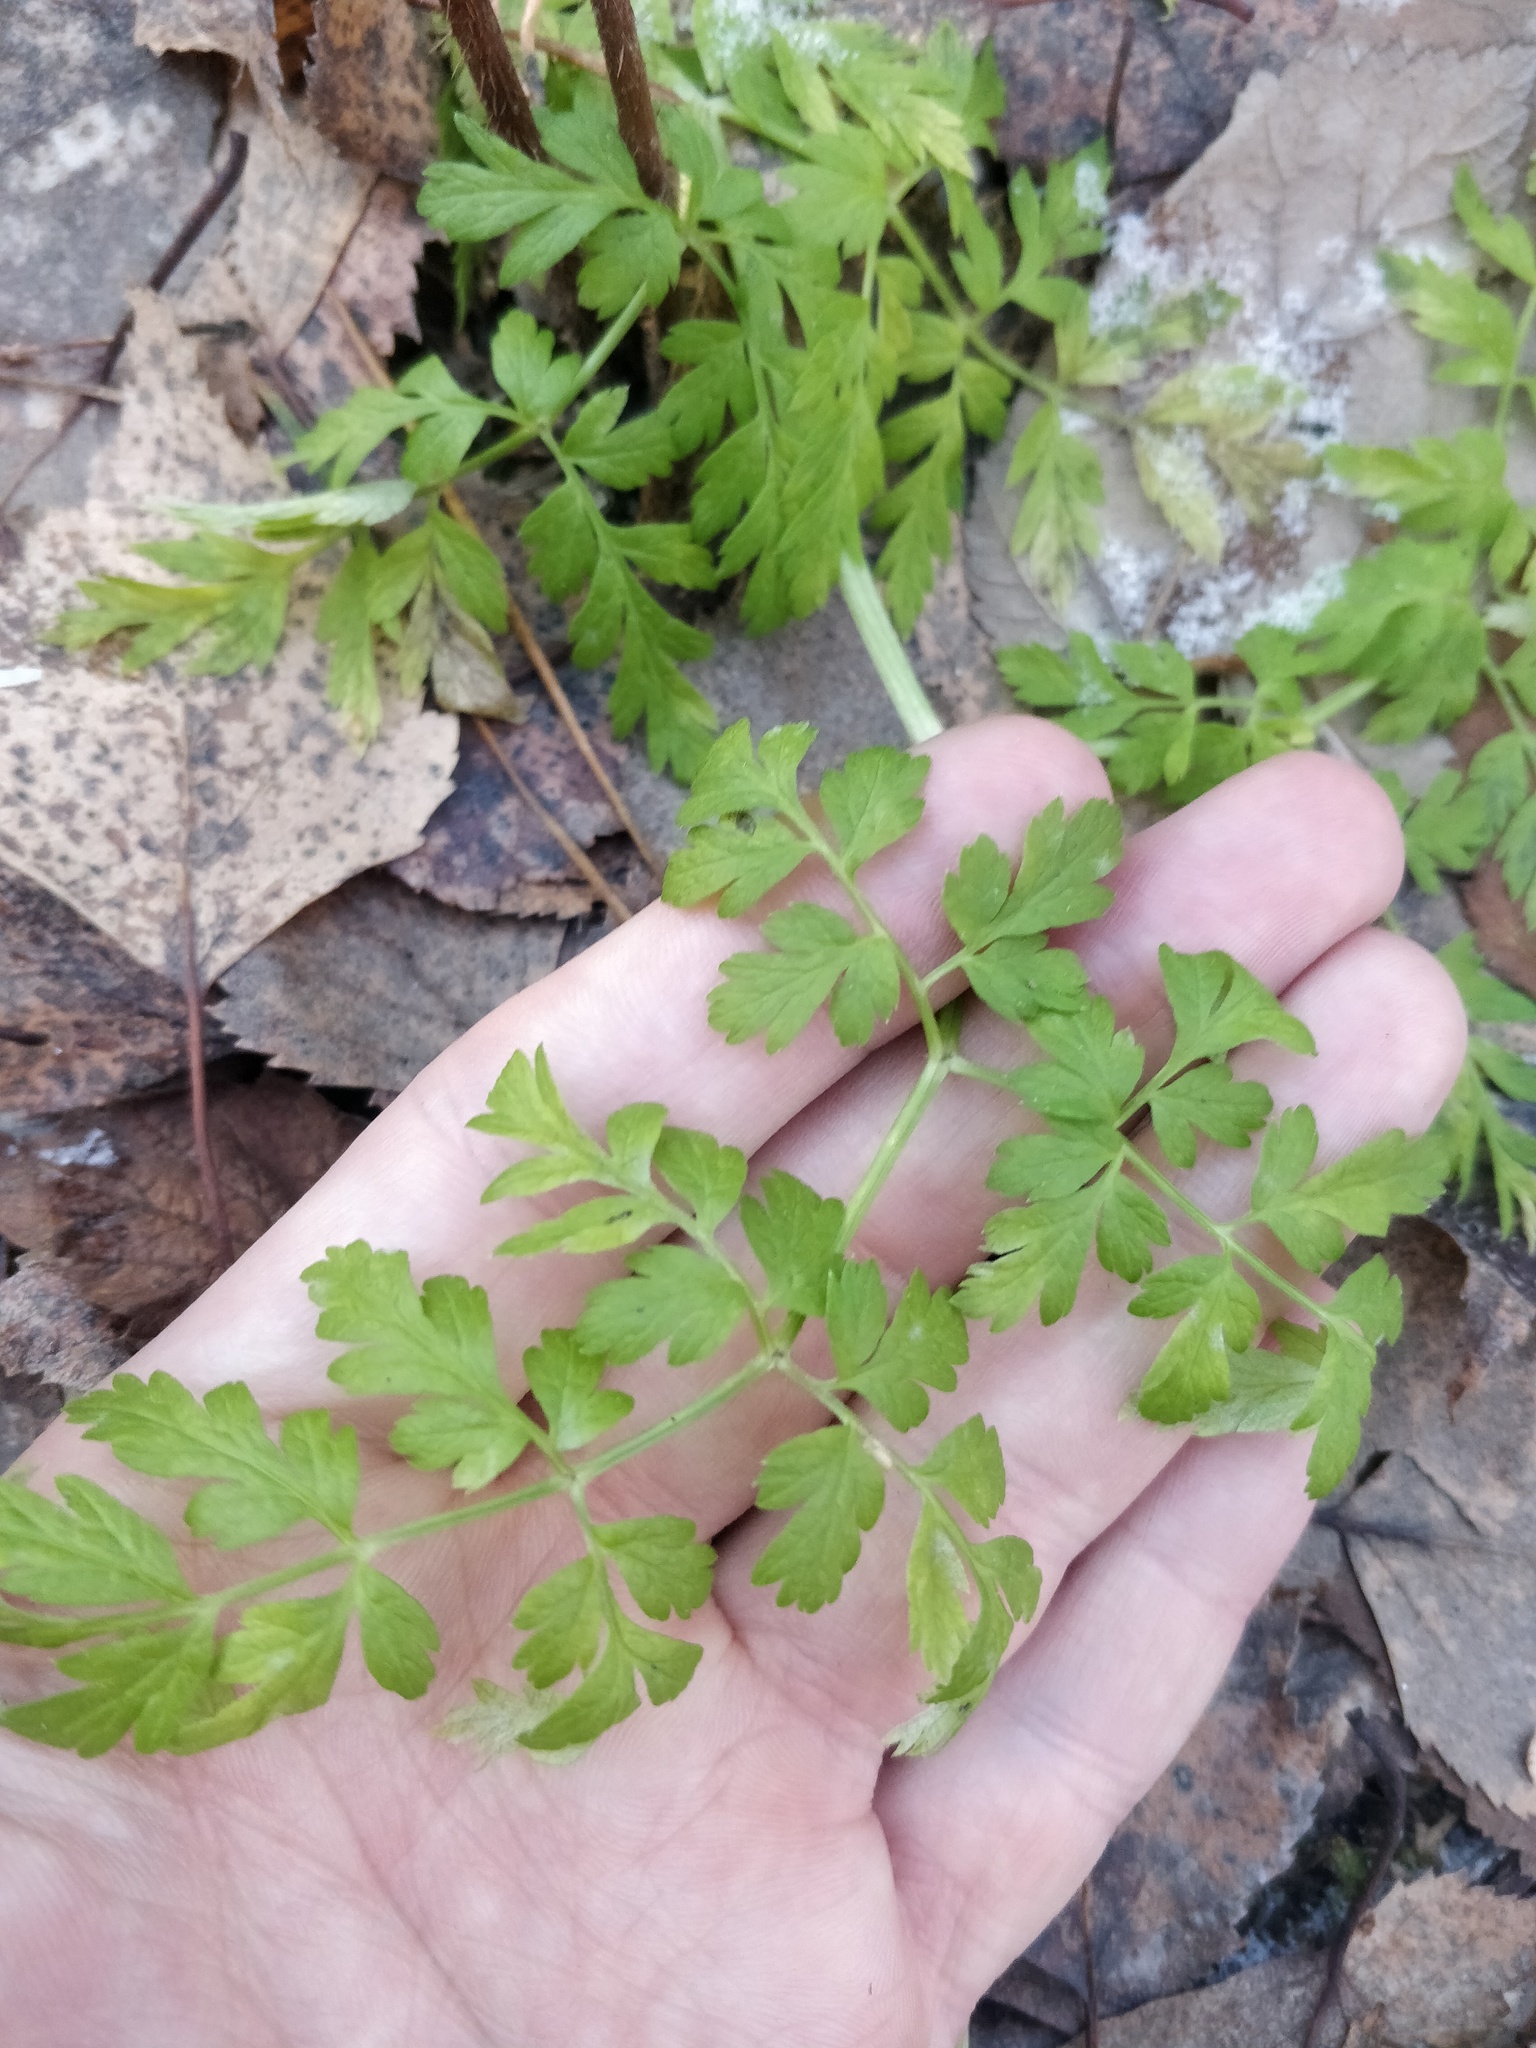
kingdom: Plantae
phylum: Tracheophyta
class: Magnoliopsida
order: Apiales
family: Apiaceae
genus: Anthriscus
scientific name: Anthriscus sylvestris
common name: Cow parsley
